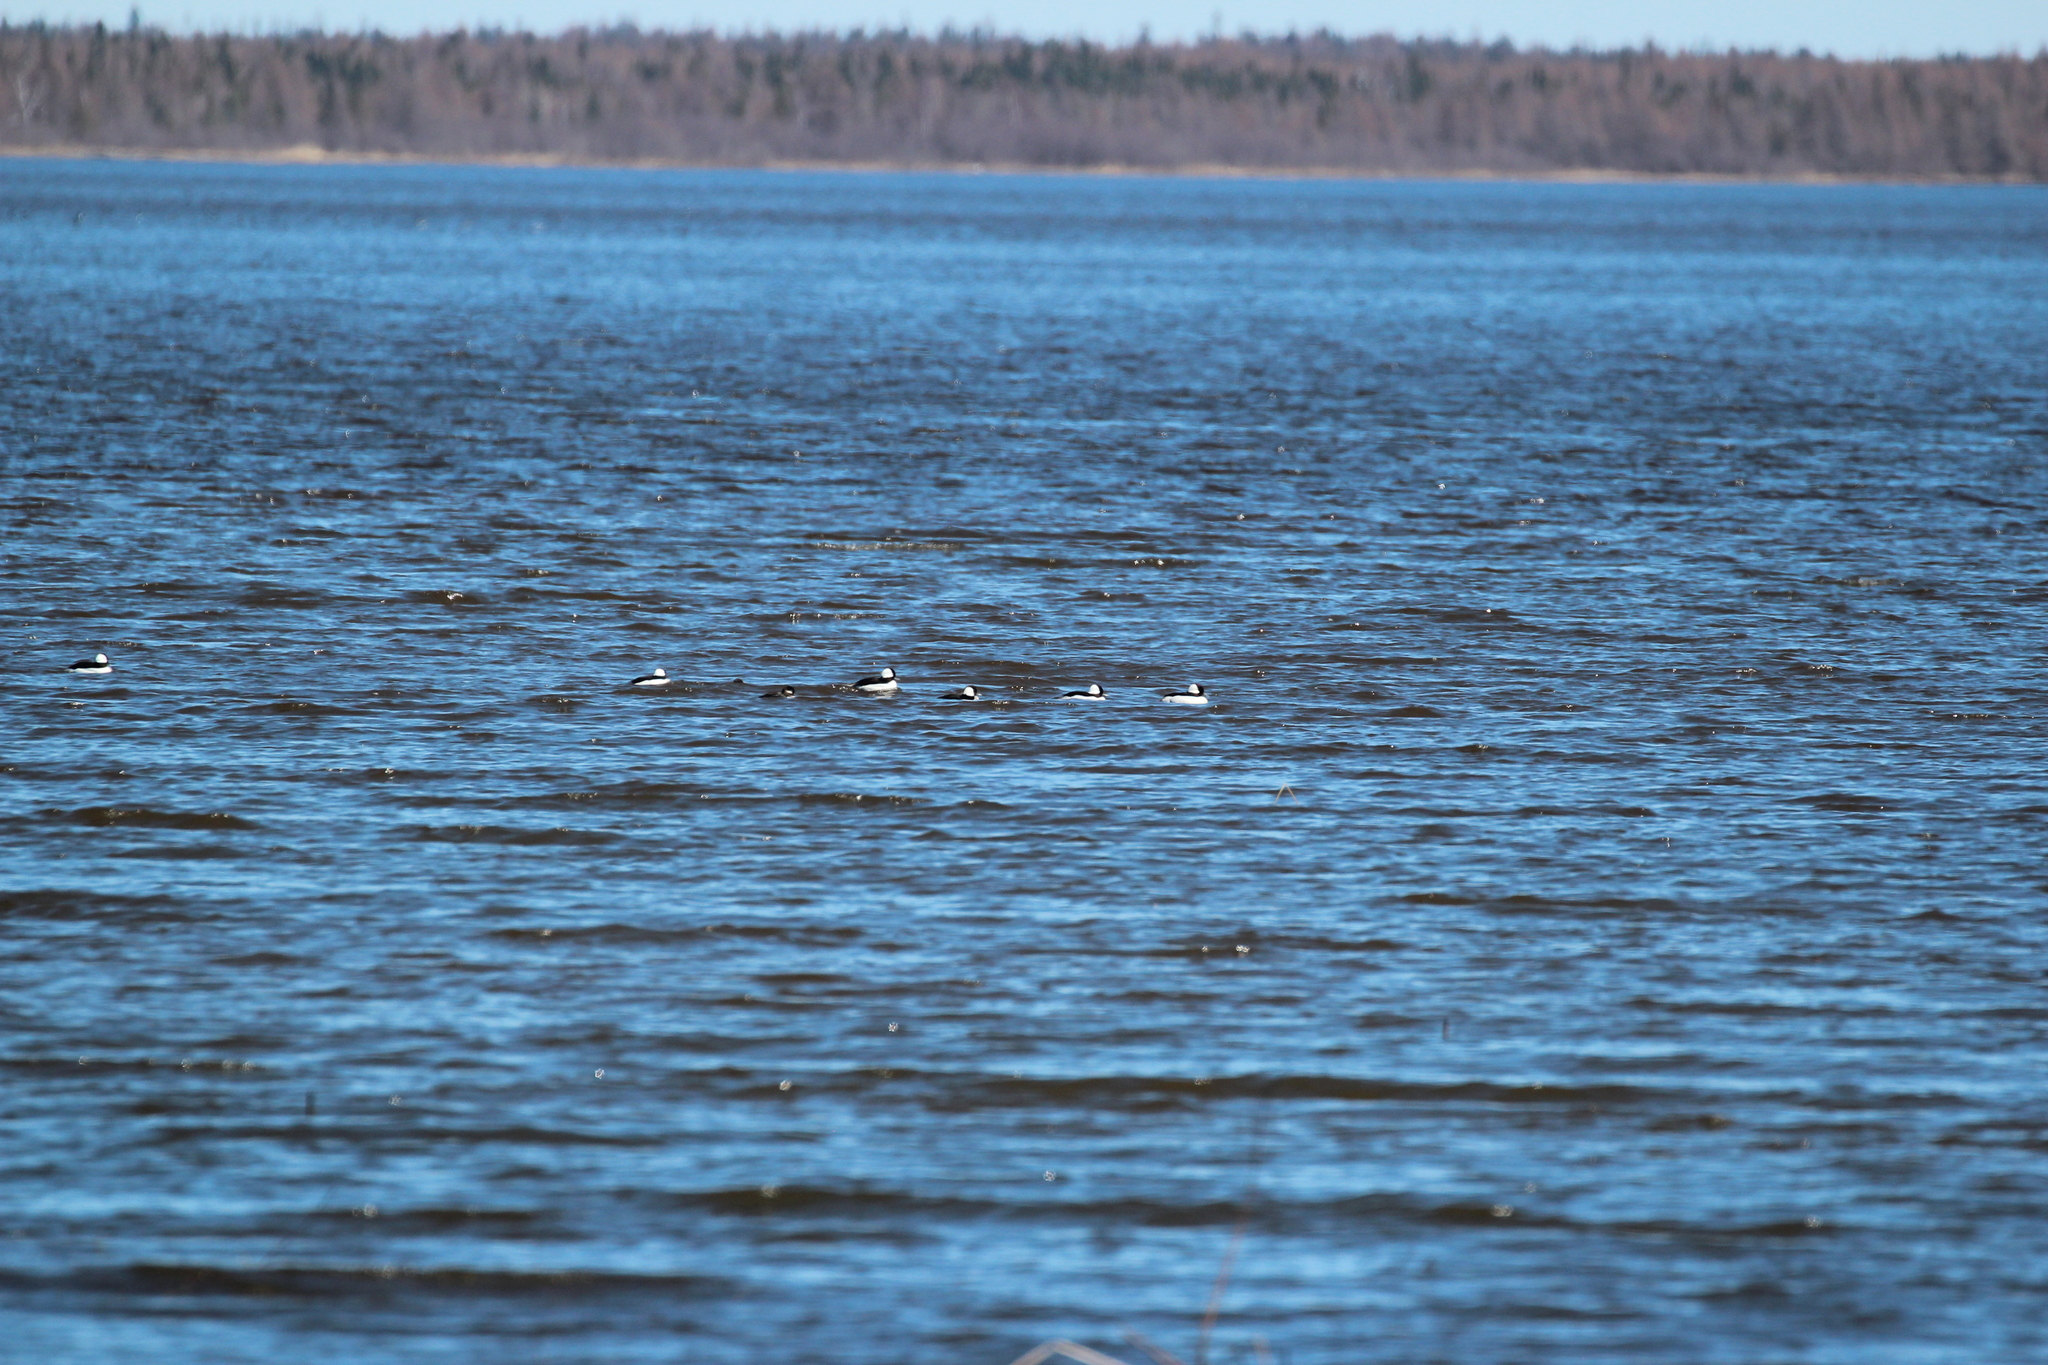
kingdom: Animalia
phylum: Chordata
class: Aves
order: Anseriformes
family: Anatidae
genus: Bucephala
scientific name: Bucephala albeola
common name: Bufflehead
